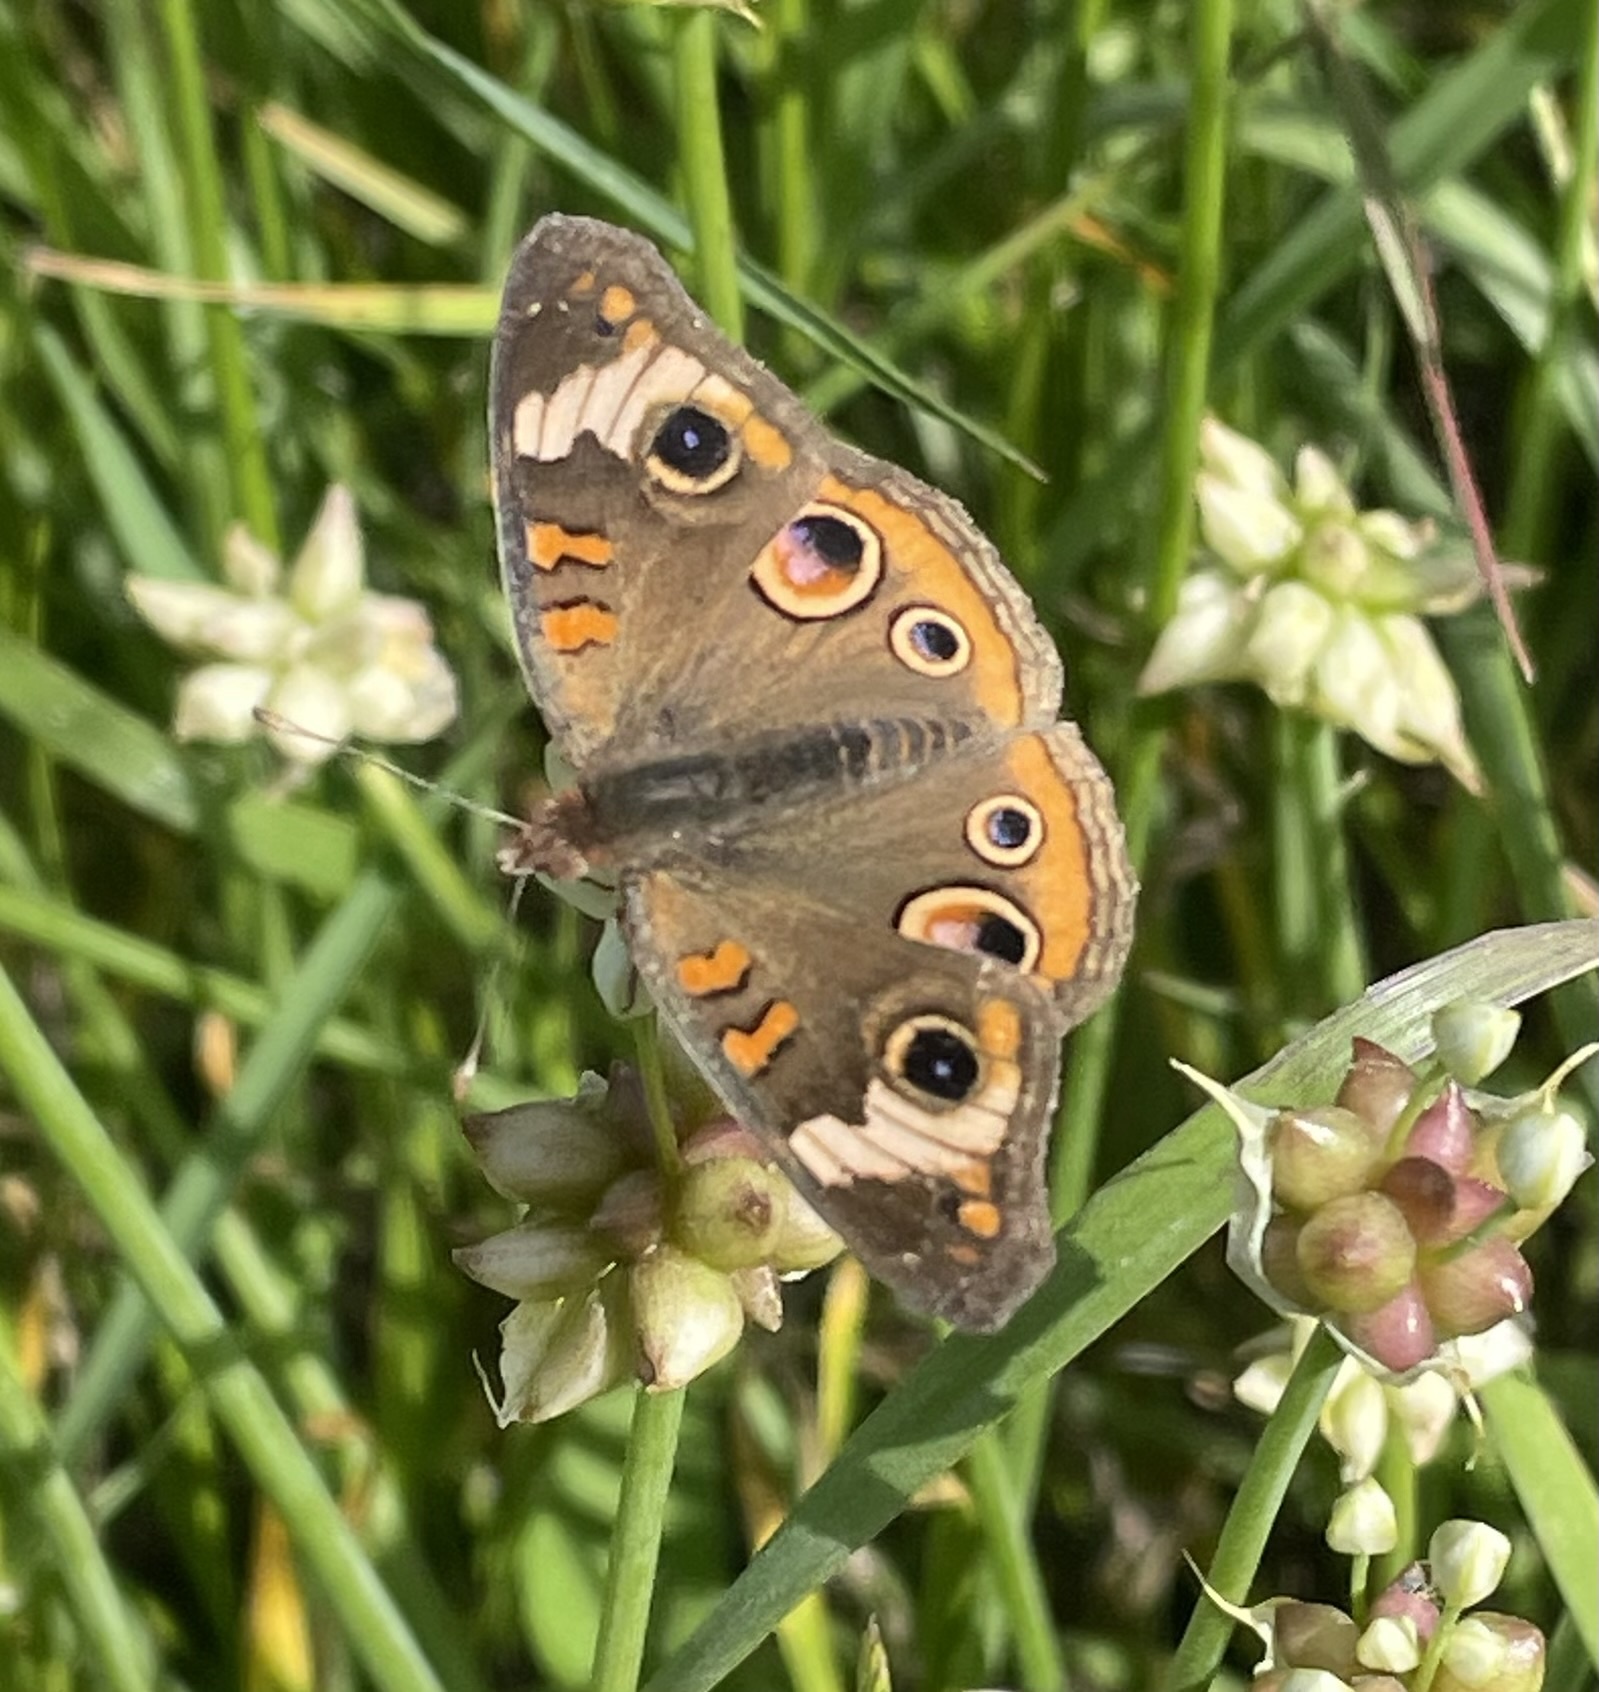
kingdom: Animalia
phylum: Arthropoda
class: Insecta
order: Lepidoptera
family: Nymphalidae
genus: Junonia
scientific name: Junonia coenia
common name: Common buckeye
